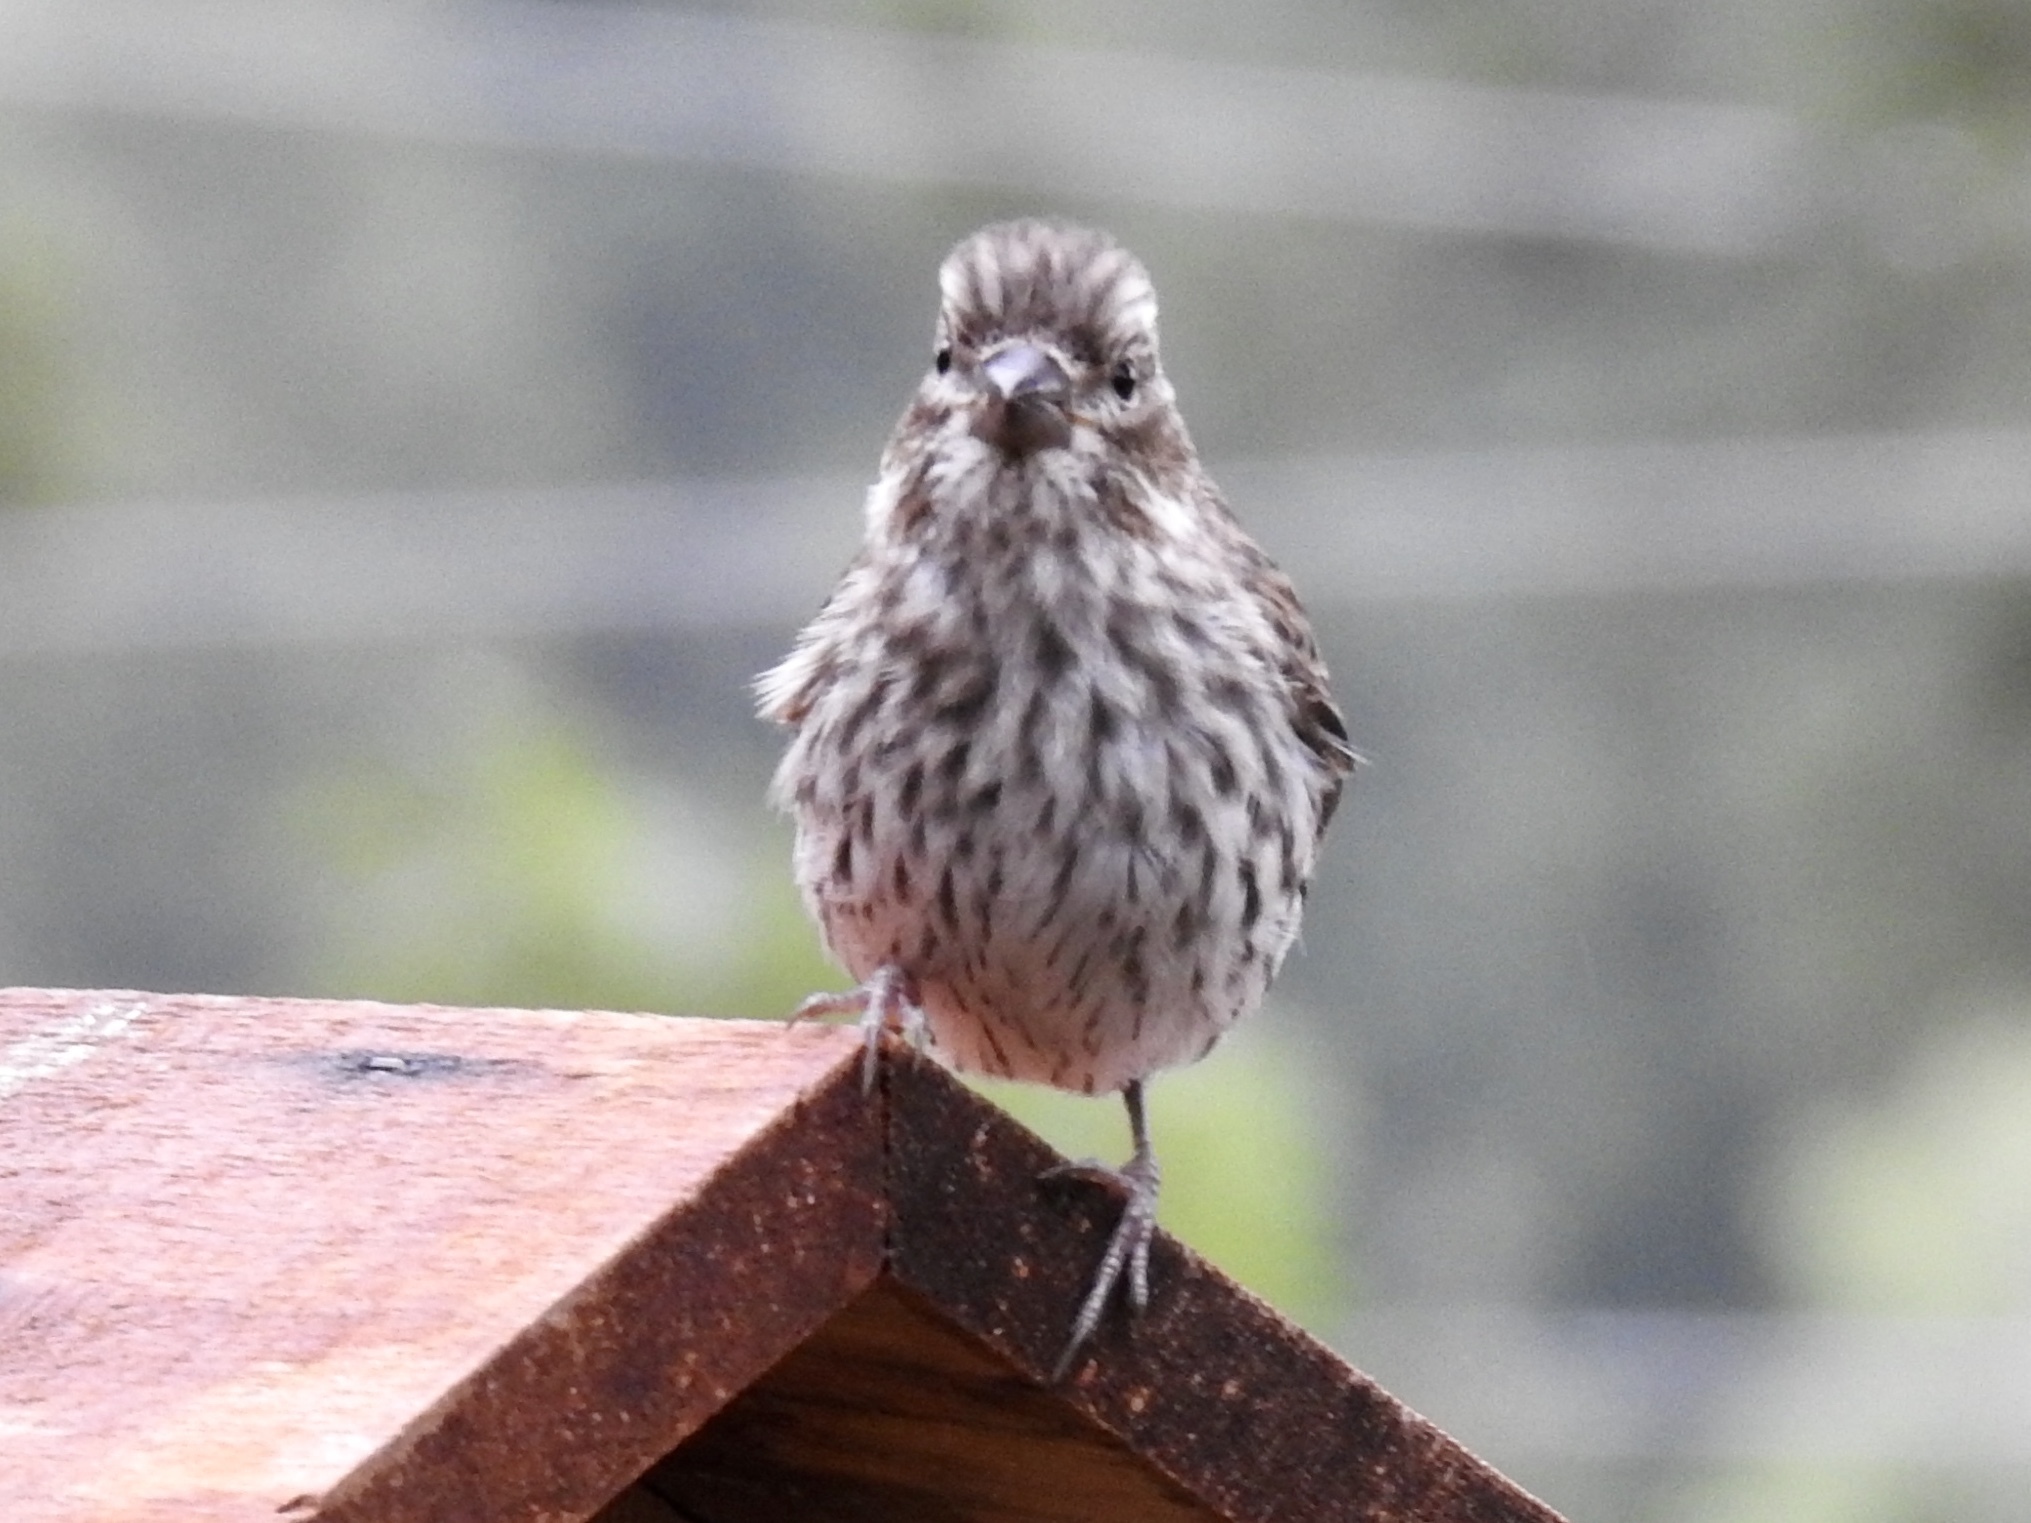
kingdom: Animalia
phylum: Chordata
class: Aves
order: Passeriformes
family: Fringillidae
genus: Haemorhous
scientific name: Haemorhous cassinii
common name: Cassin's finch
